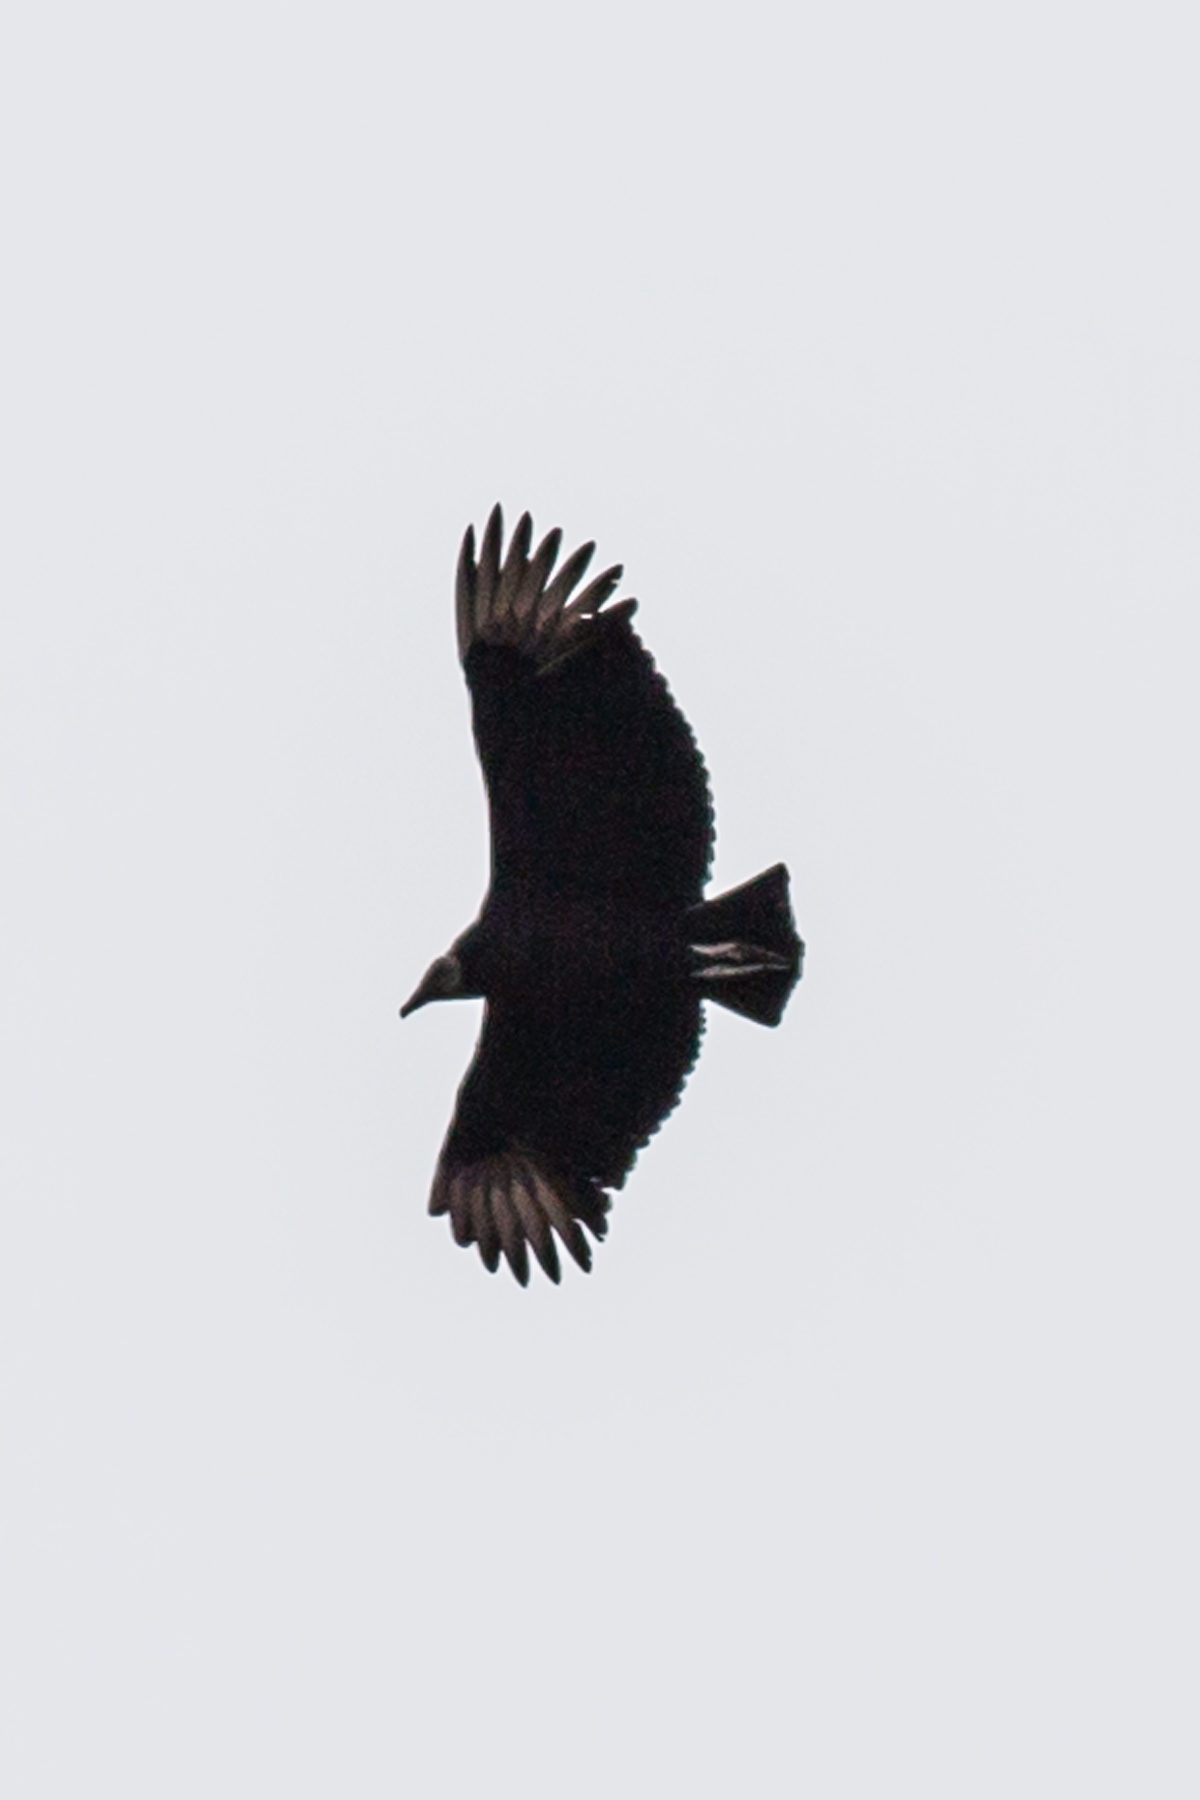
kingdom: Animalia
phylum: Chordata
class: Aves
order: Accipitriformes
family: Cathartidae
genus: Coragyps
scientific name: Coragyps atratus
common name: Black vulture
